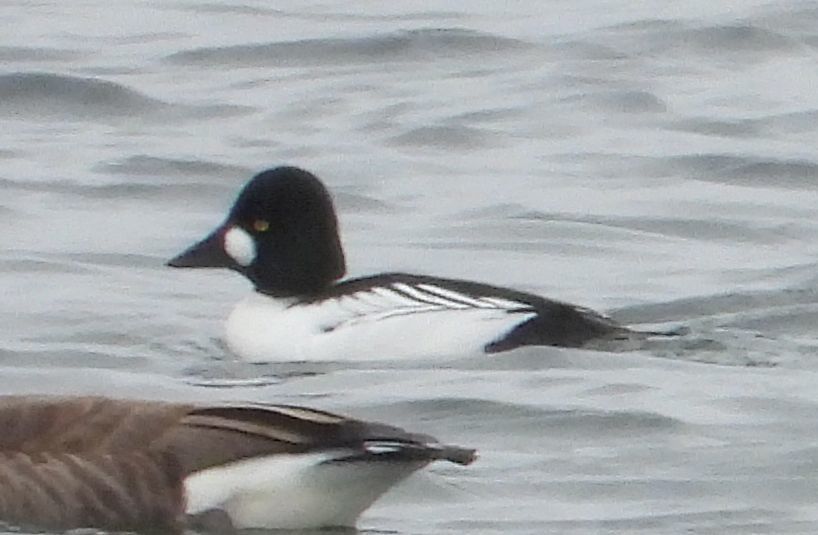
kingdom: Animalia
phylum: Chordata
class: Aves
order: Anseriformes
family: Anatidae
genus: Bucephala
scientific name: Bucephala clangula
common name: Common goldeneye
